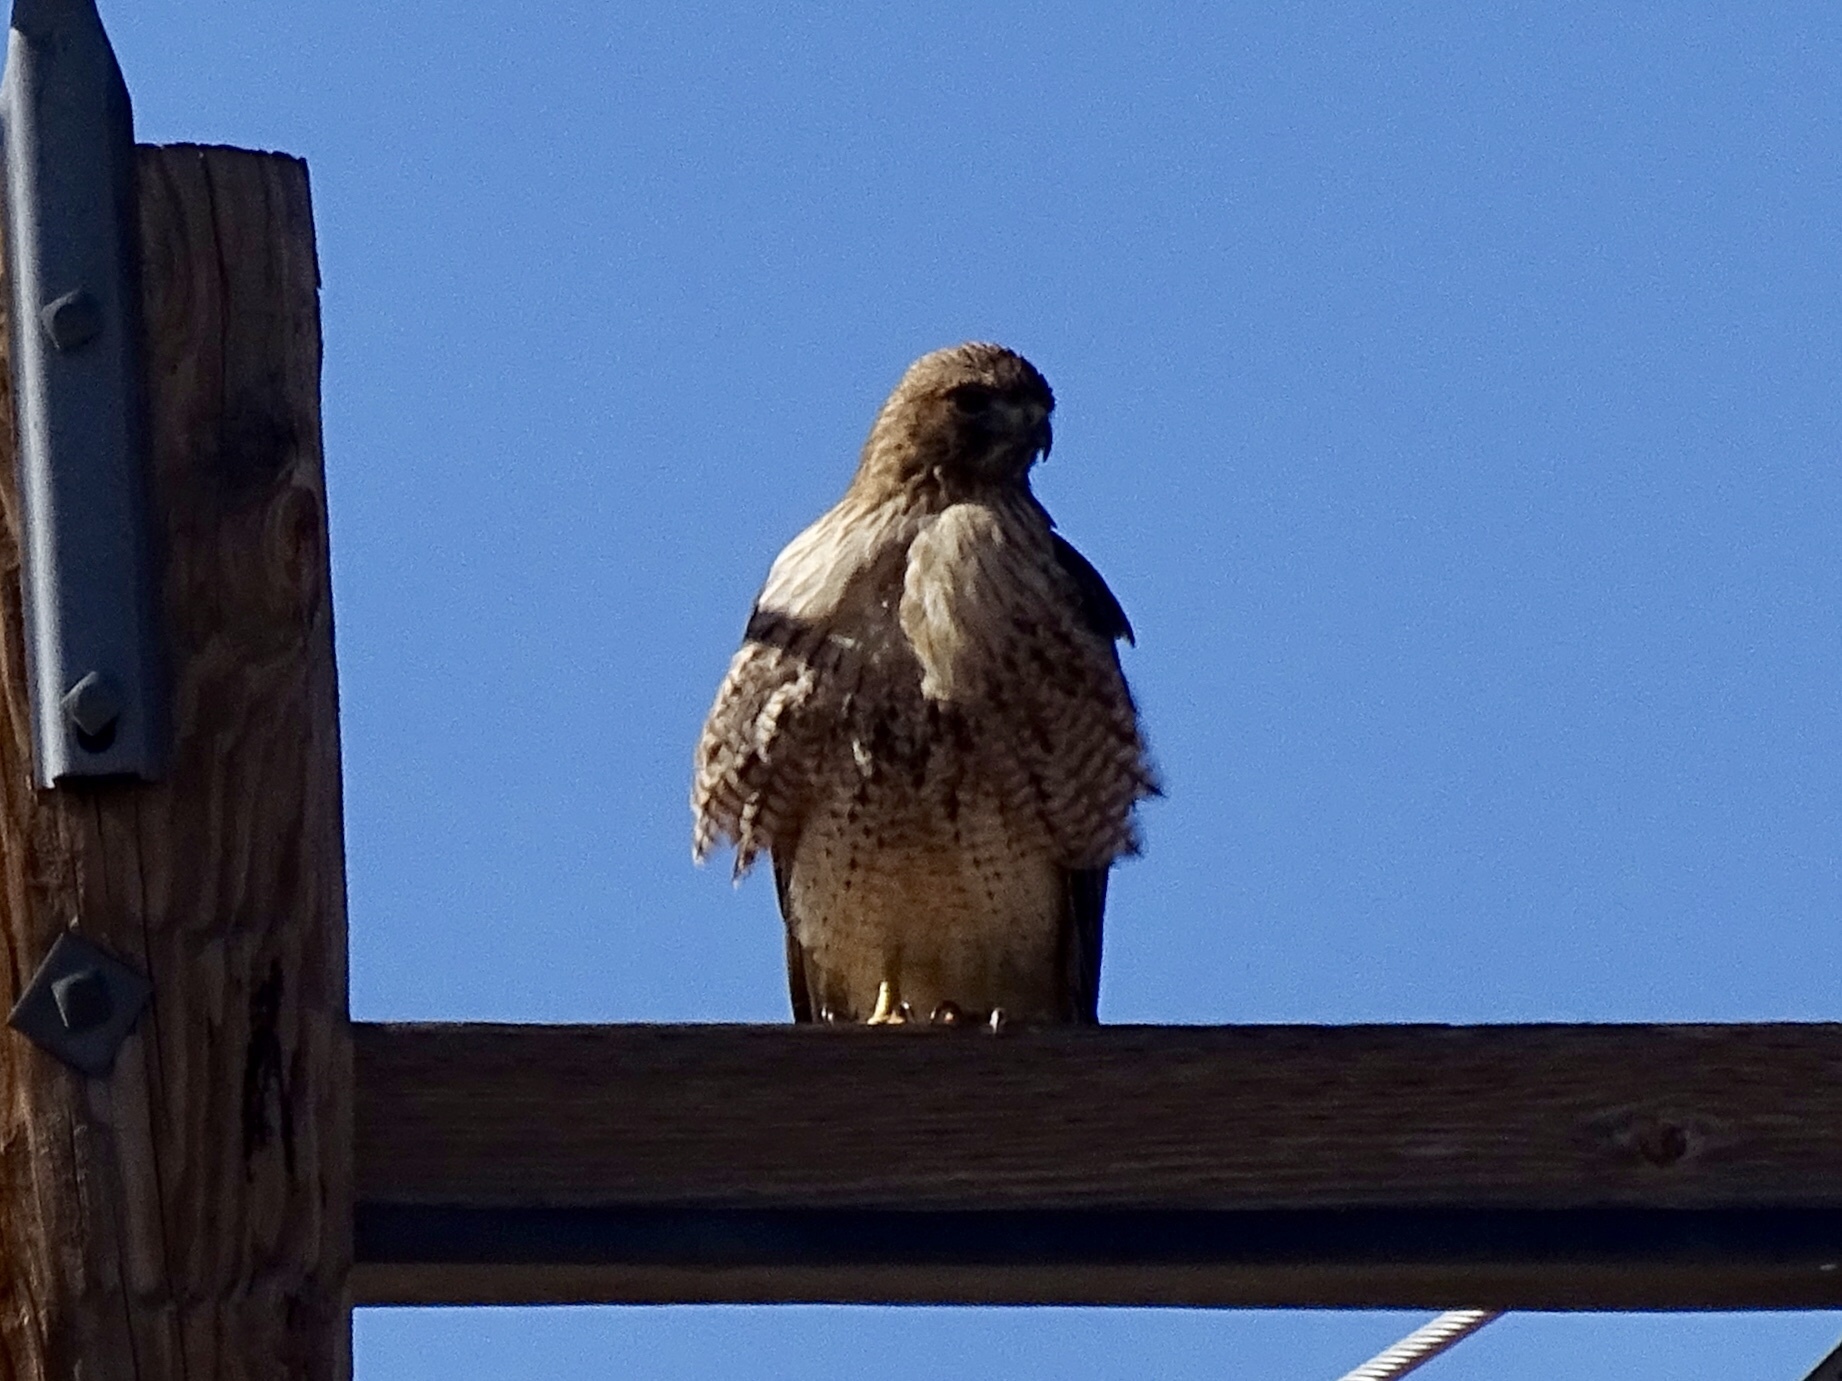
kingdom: Animalia
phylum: Chordata
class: Aves
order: Accipitriformes
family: Accipitridae
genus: Buteo
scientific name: Buteo jamaicensis
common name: Red-tailed hawk
